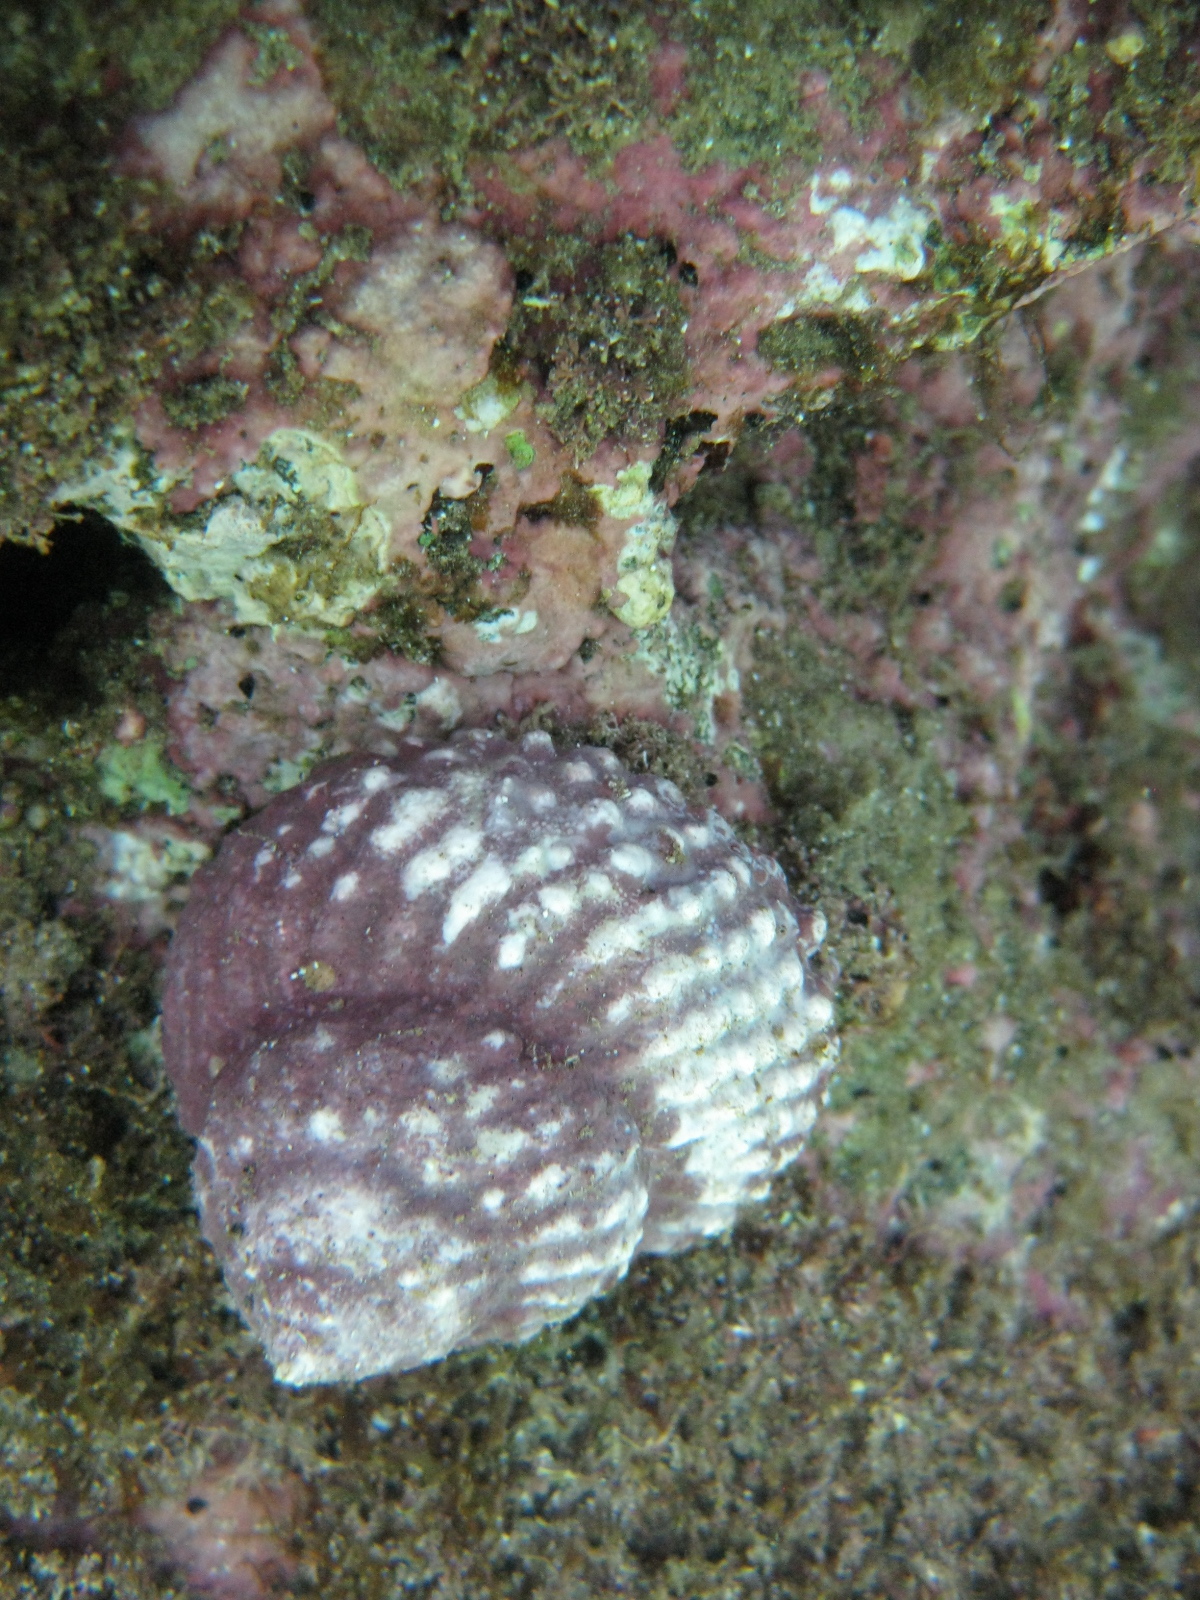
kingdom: Animalia
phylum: Mollusca
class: Gastropoda
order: Trochida
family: Turbinidae
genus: Cookia
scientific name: Cookia sulcata
